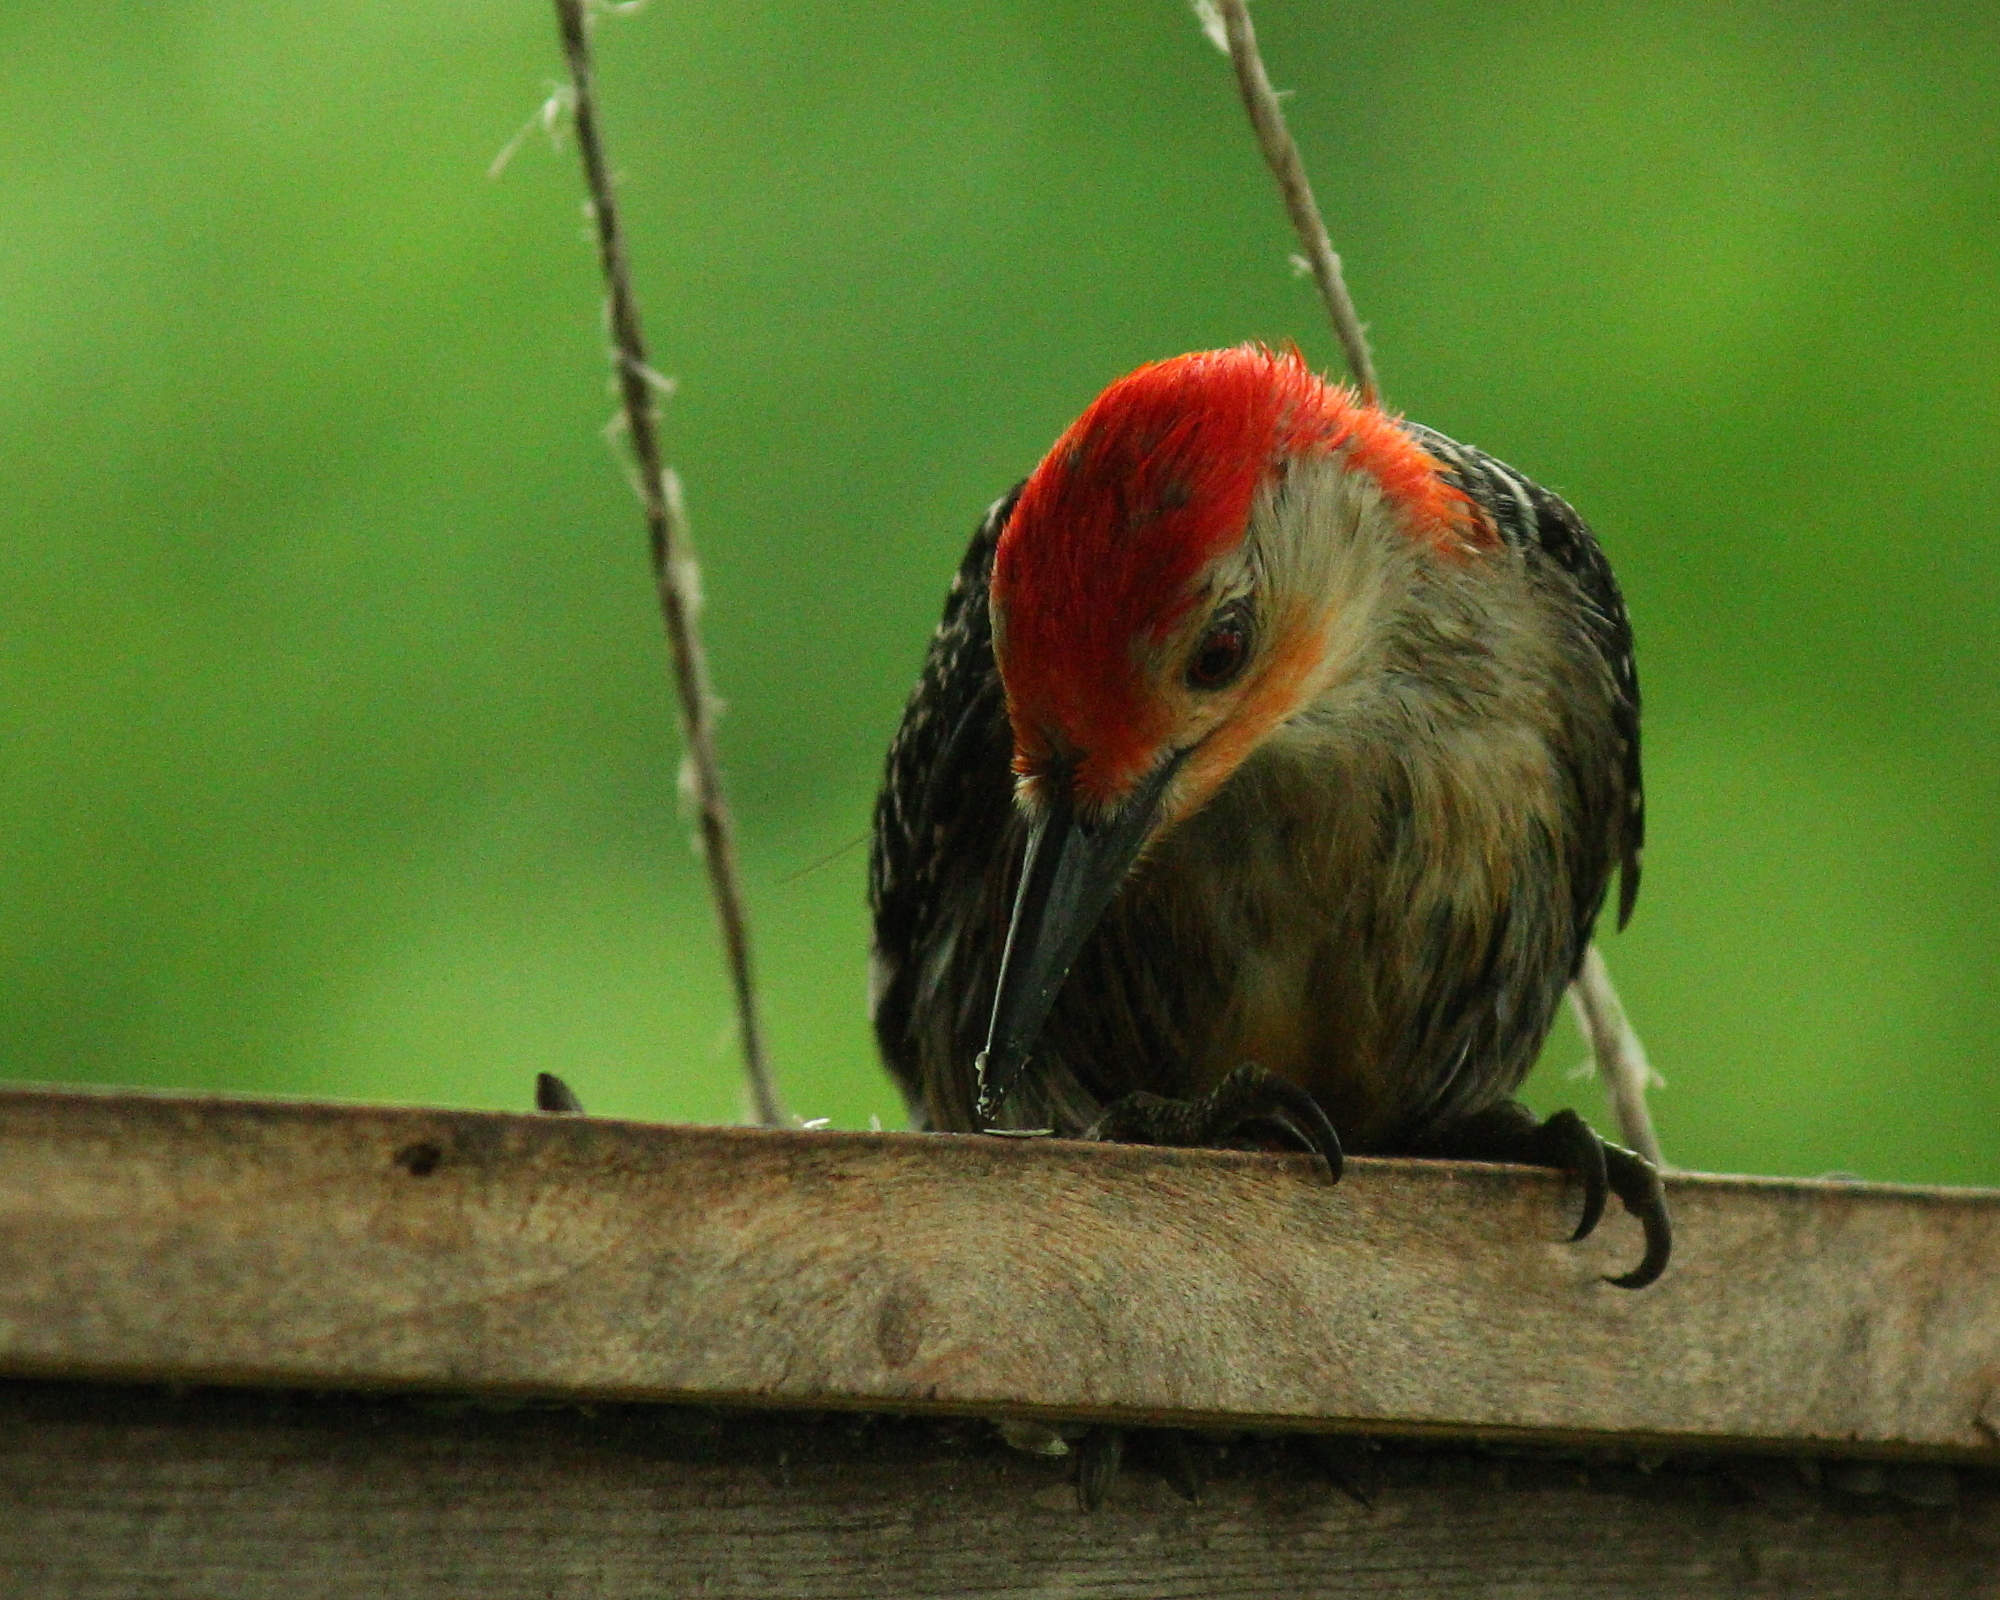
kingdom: Animalia
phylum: Chordata
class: Aves
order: Piciformes
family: Picidae
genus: Melanerpes
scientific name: Melanerpes carolinus
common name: Red-bellied woodpecker
